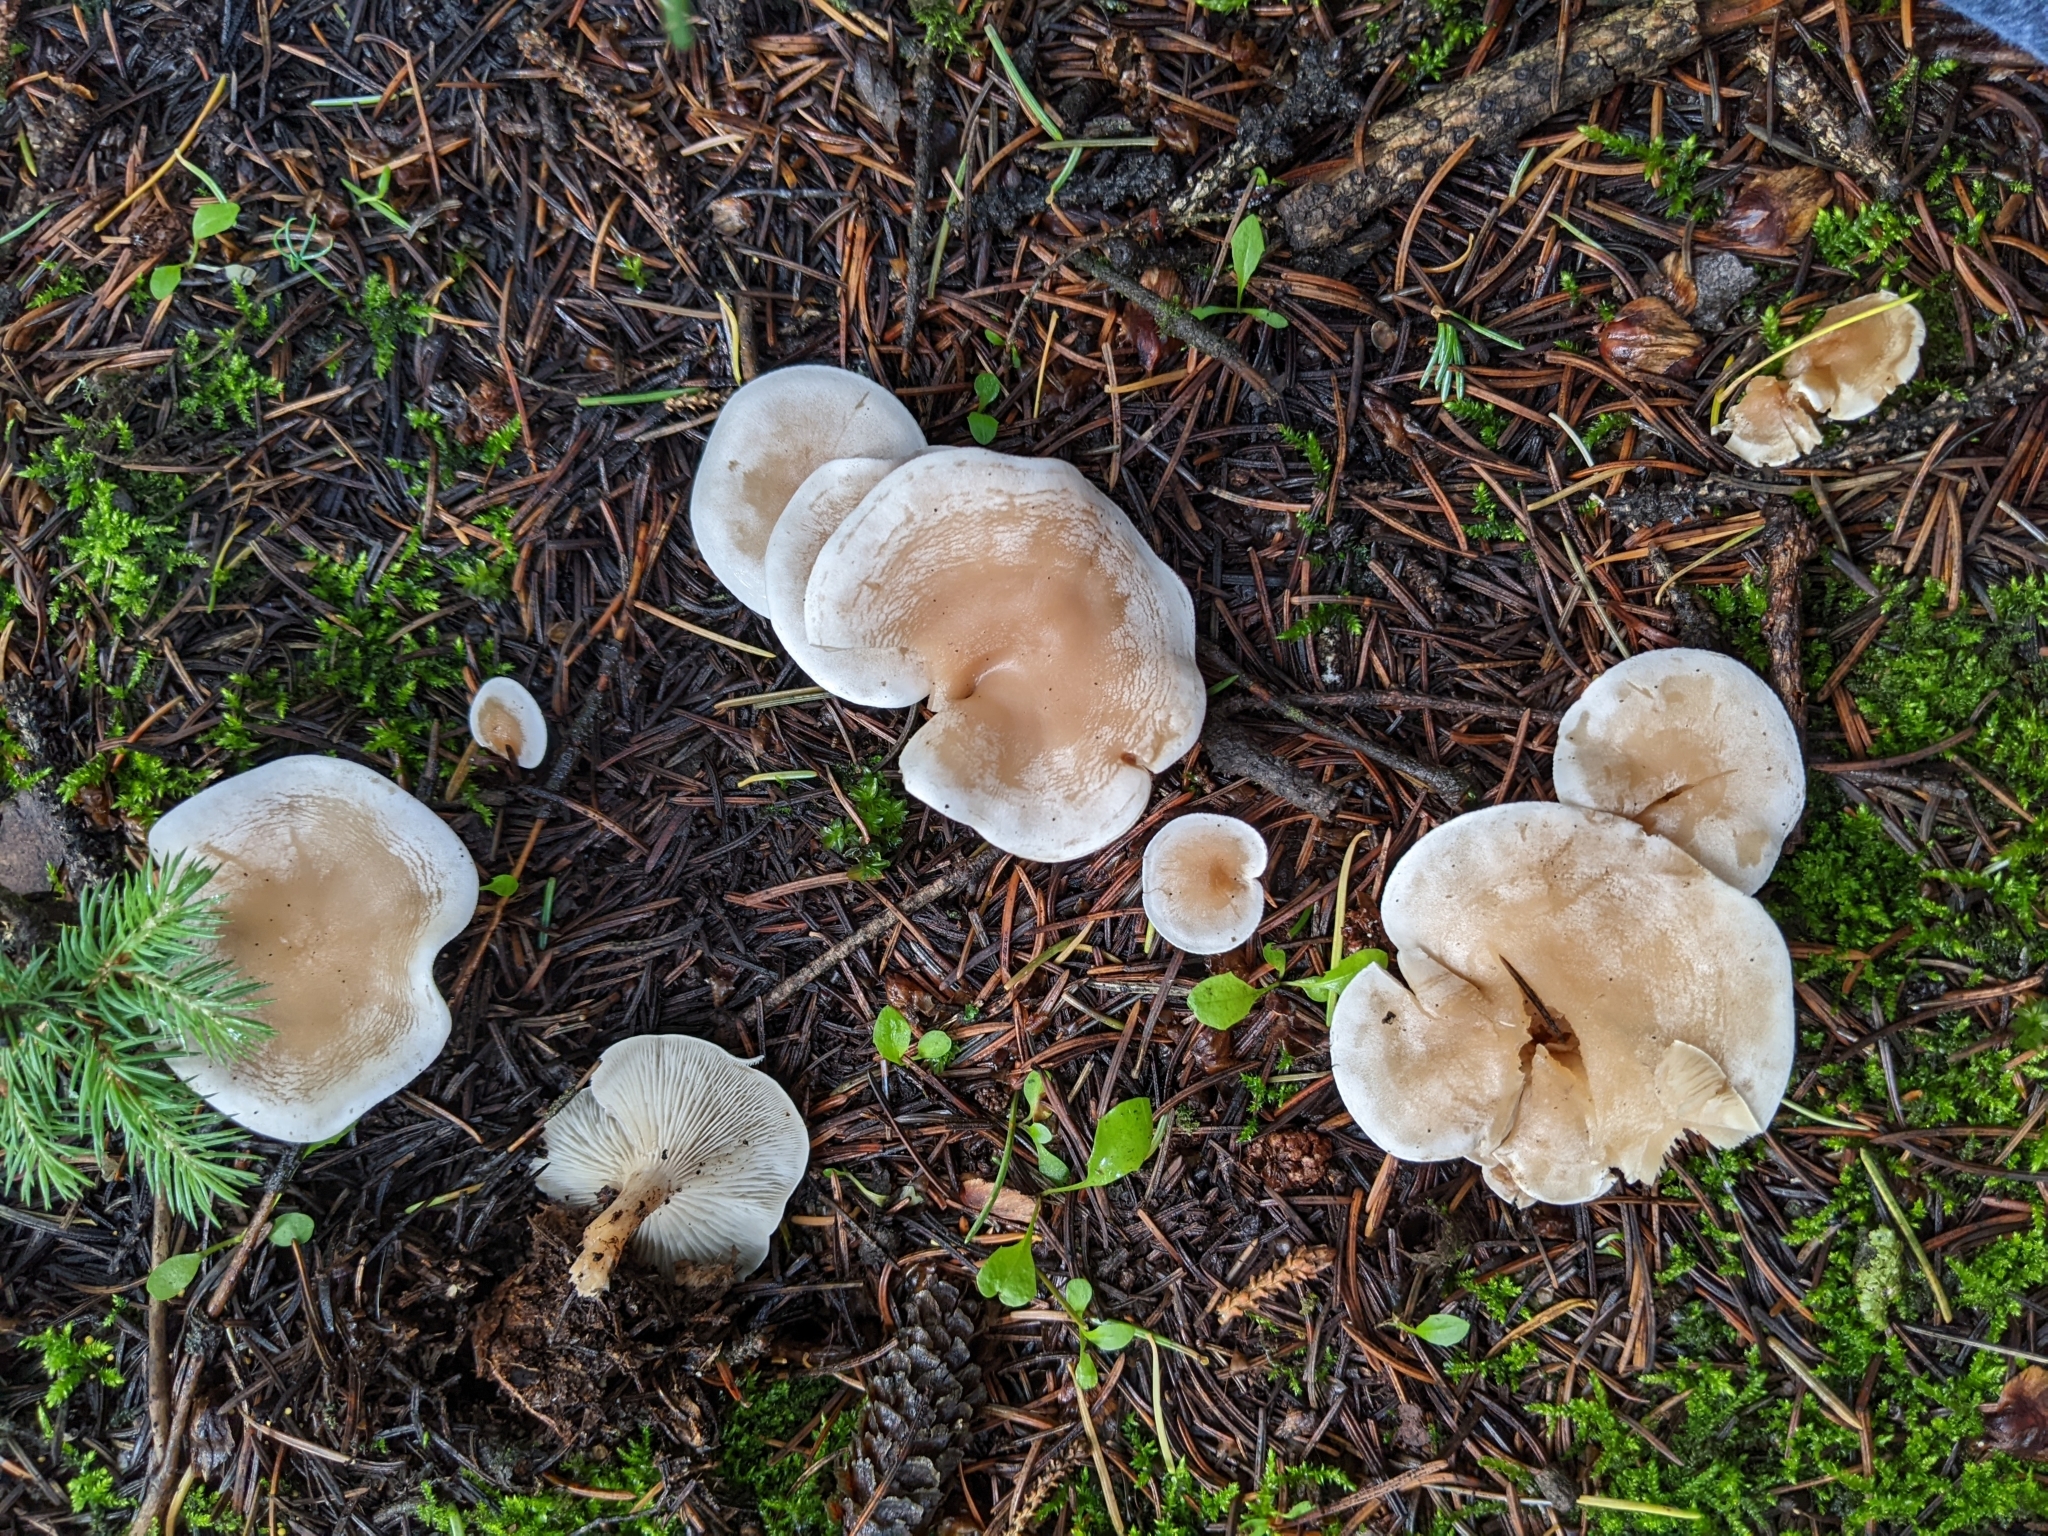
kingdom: Fungi
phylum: Basidiomycota
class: Agaricomycetes
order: Agaricales
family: Tricholomataceae
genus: Leucocybe
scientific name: Leucocybe candicans
